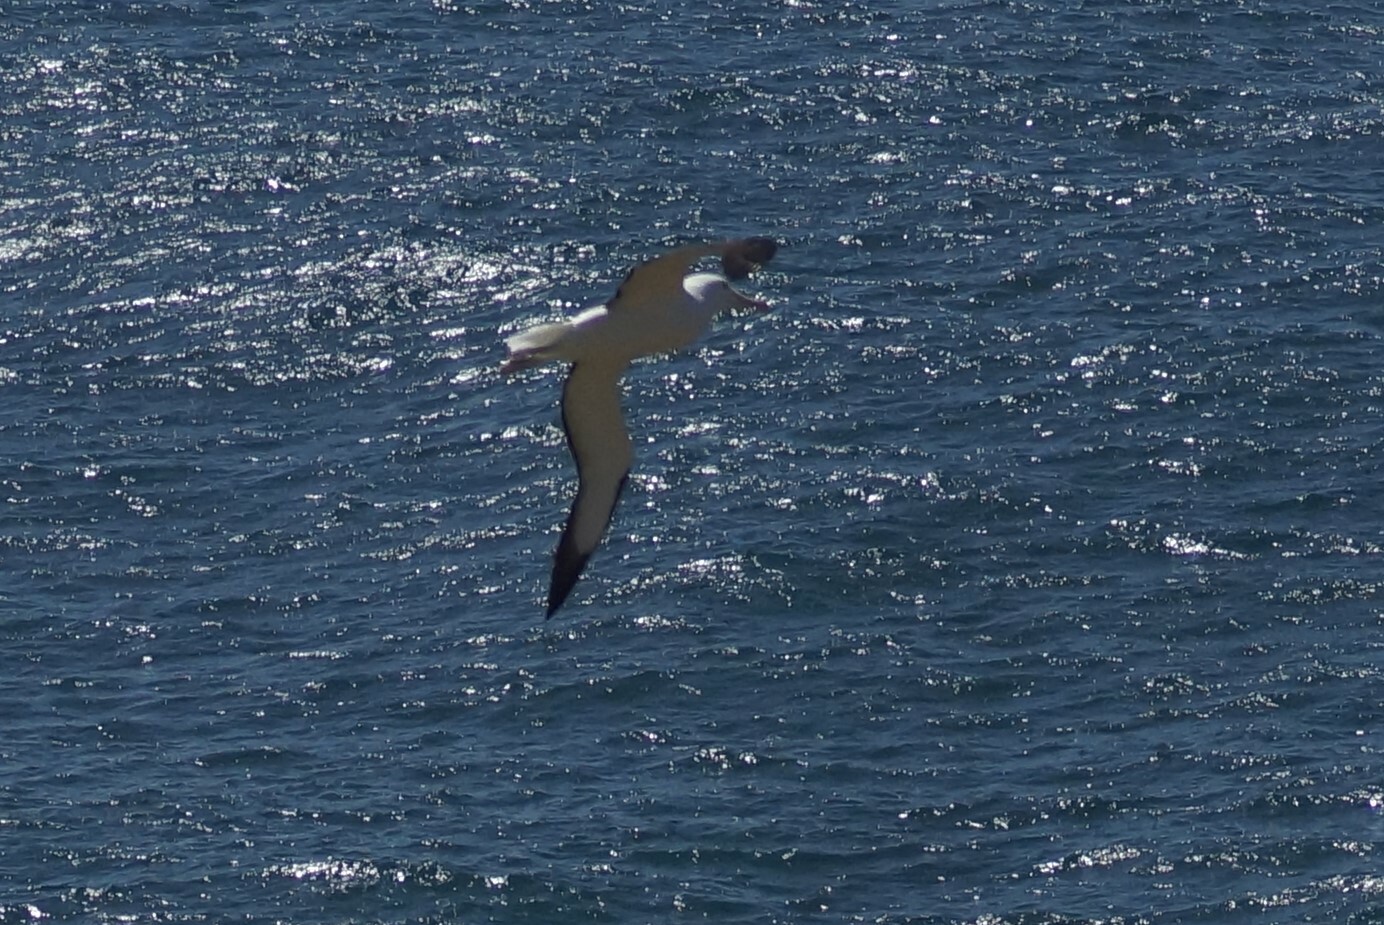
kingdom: Animalia
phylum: Chordata
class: Aves
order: Procellariiformes
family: Diomedeidae
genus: Diomedea
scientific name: Diomedea sanfordi
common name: Northern royal albatross
